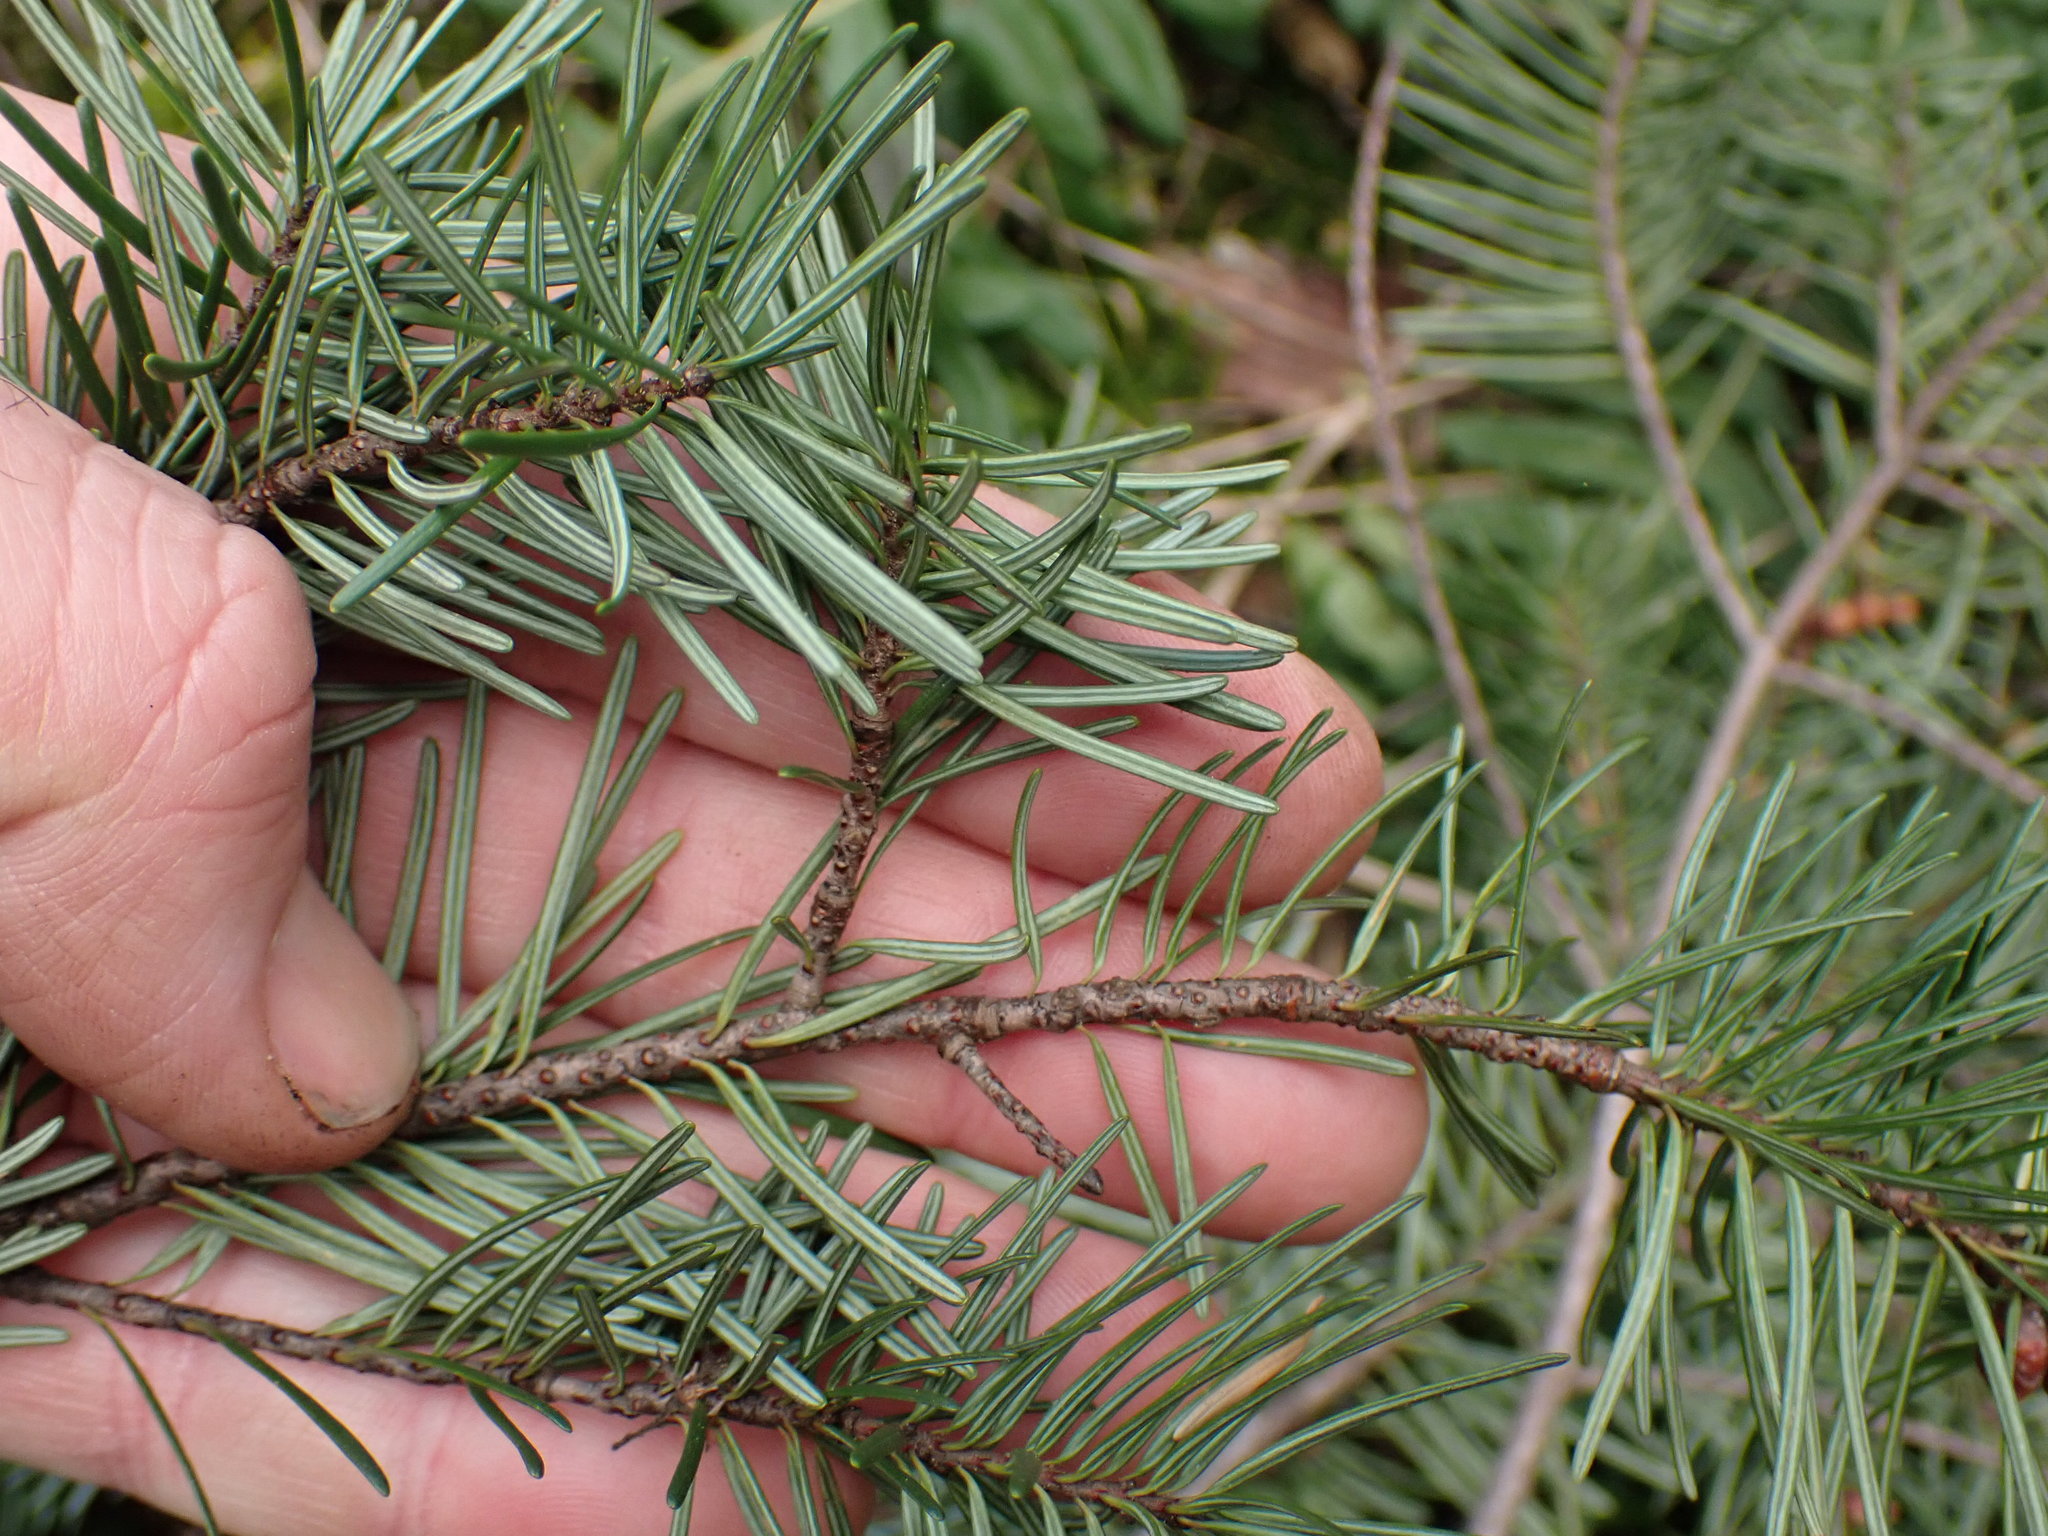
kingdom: Plantae
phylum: Tracheophyta
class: Pinopsida
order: Pinales
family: Pinaceae
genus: Pseudotsuga
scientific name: Pseudotsuga menziesii
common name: Douglas fir
